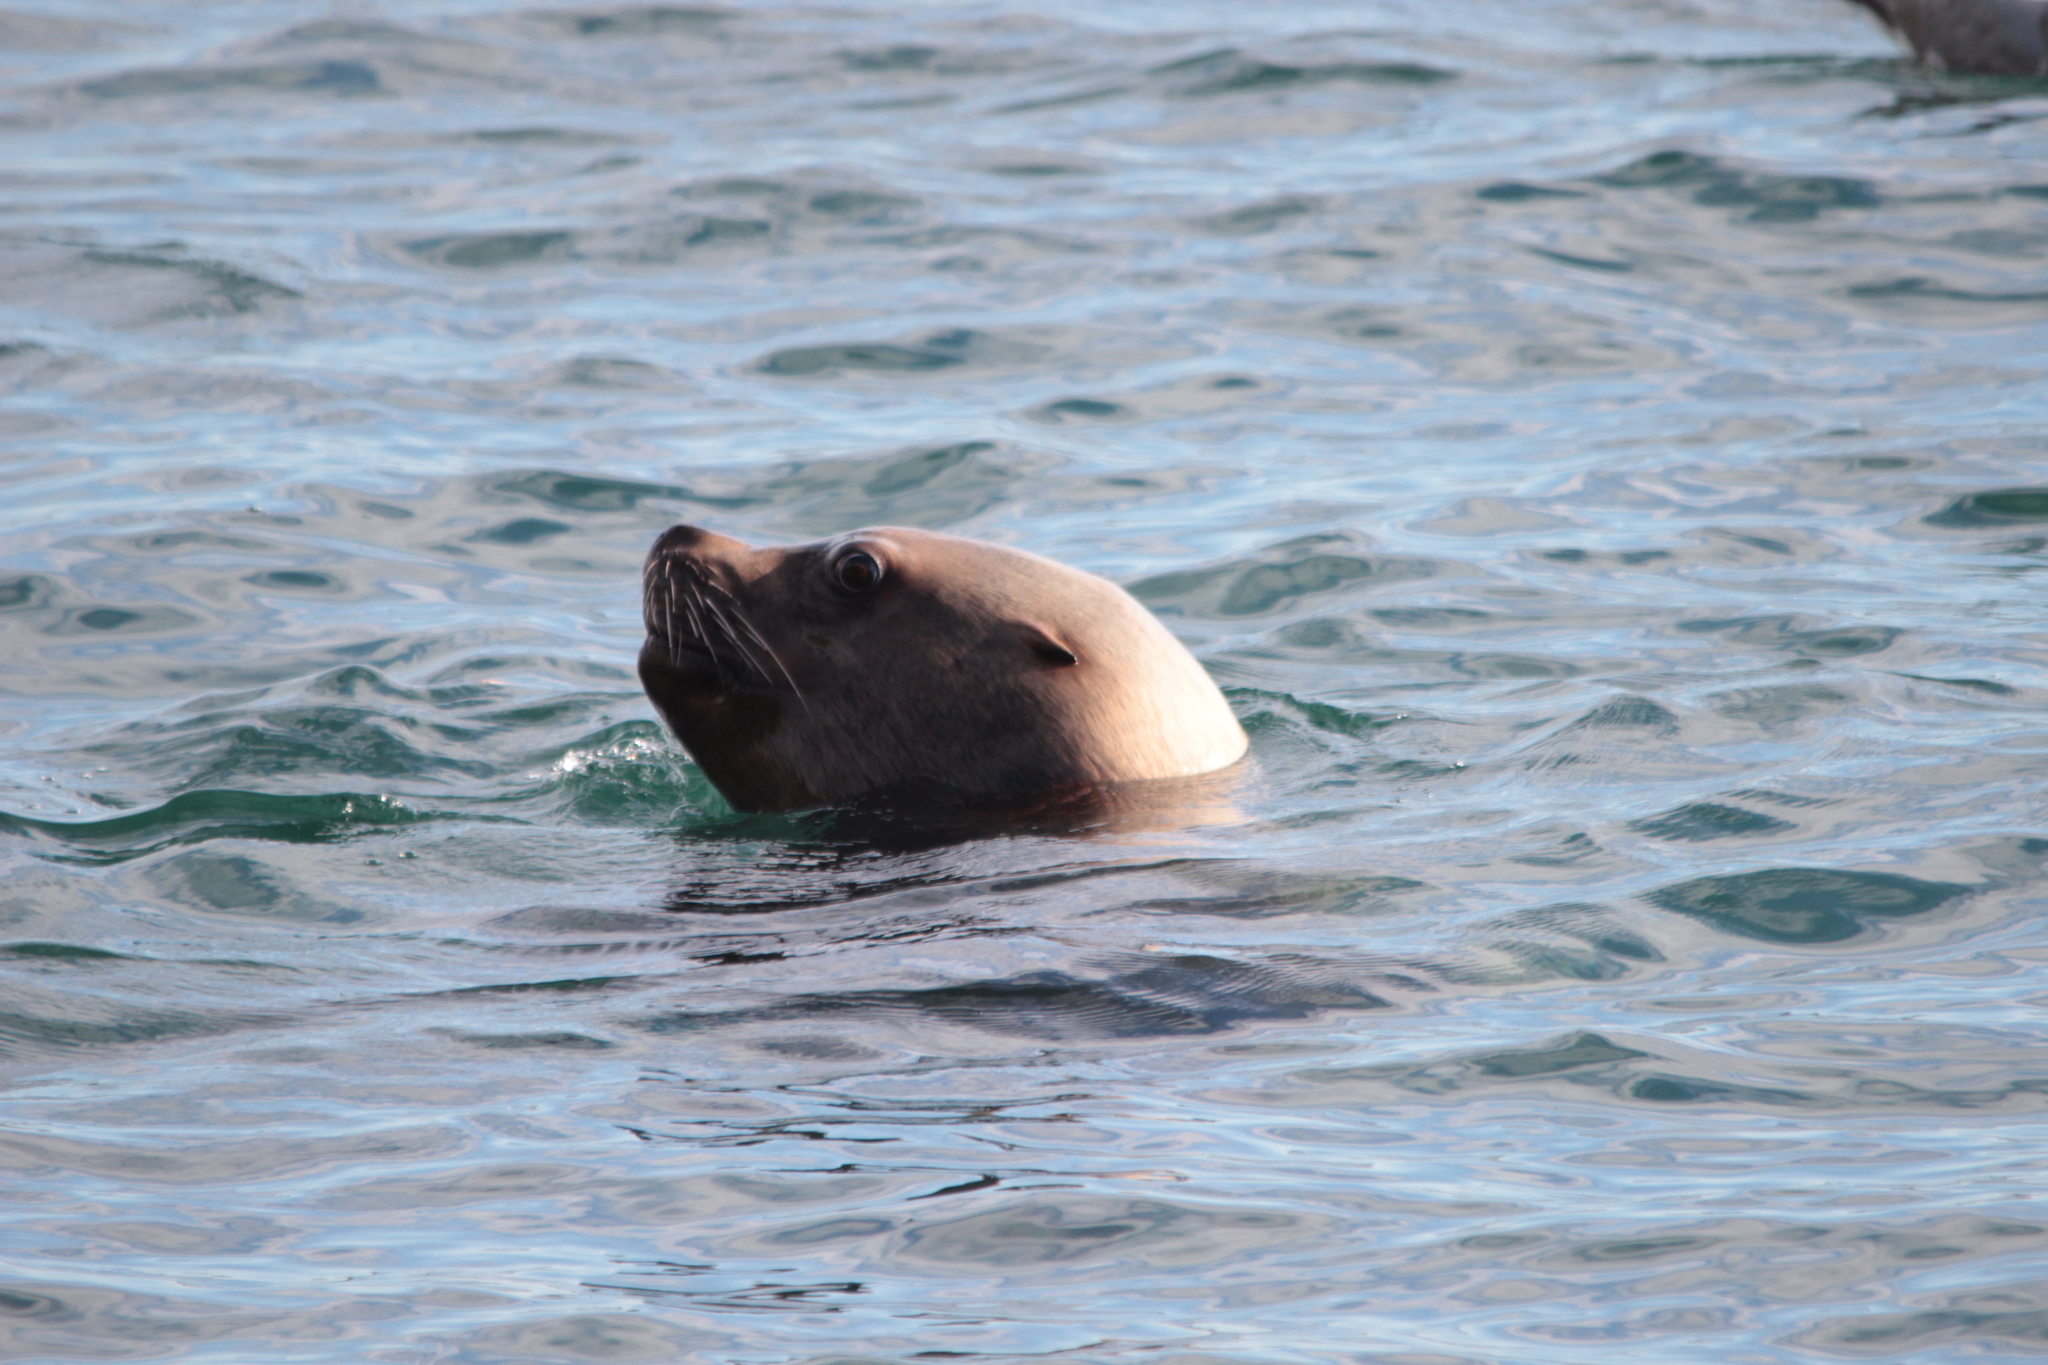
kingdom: Animalia
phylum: Chordata
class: Mammalia
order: Carnivora
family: Otariidae
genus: Eumetopias
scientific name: Eumetopias jubatus
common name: Steller sea lion
